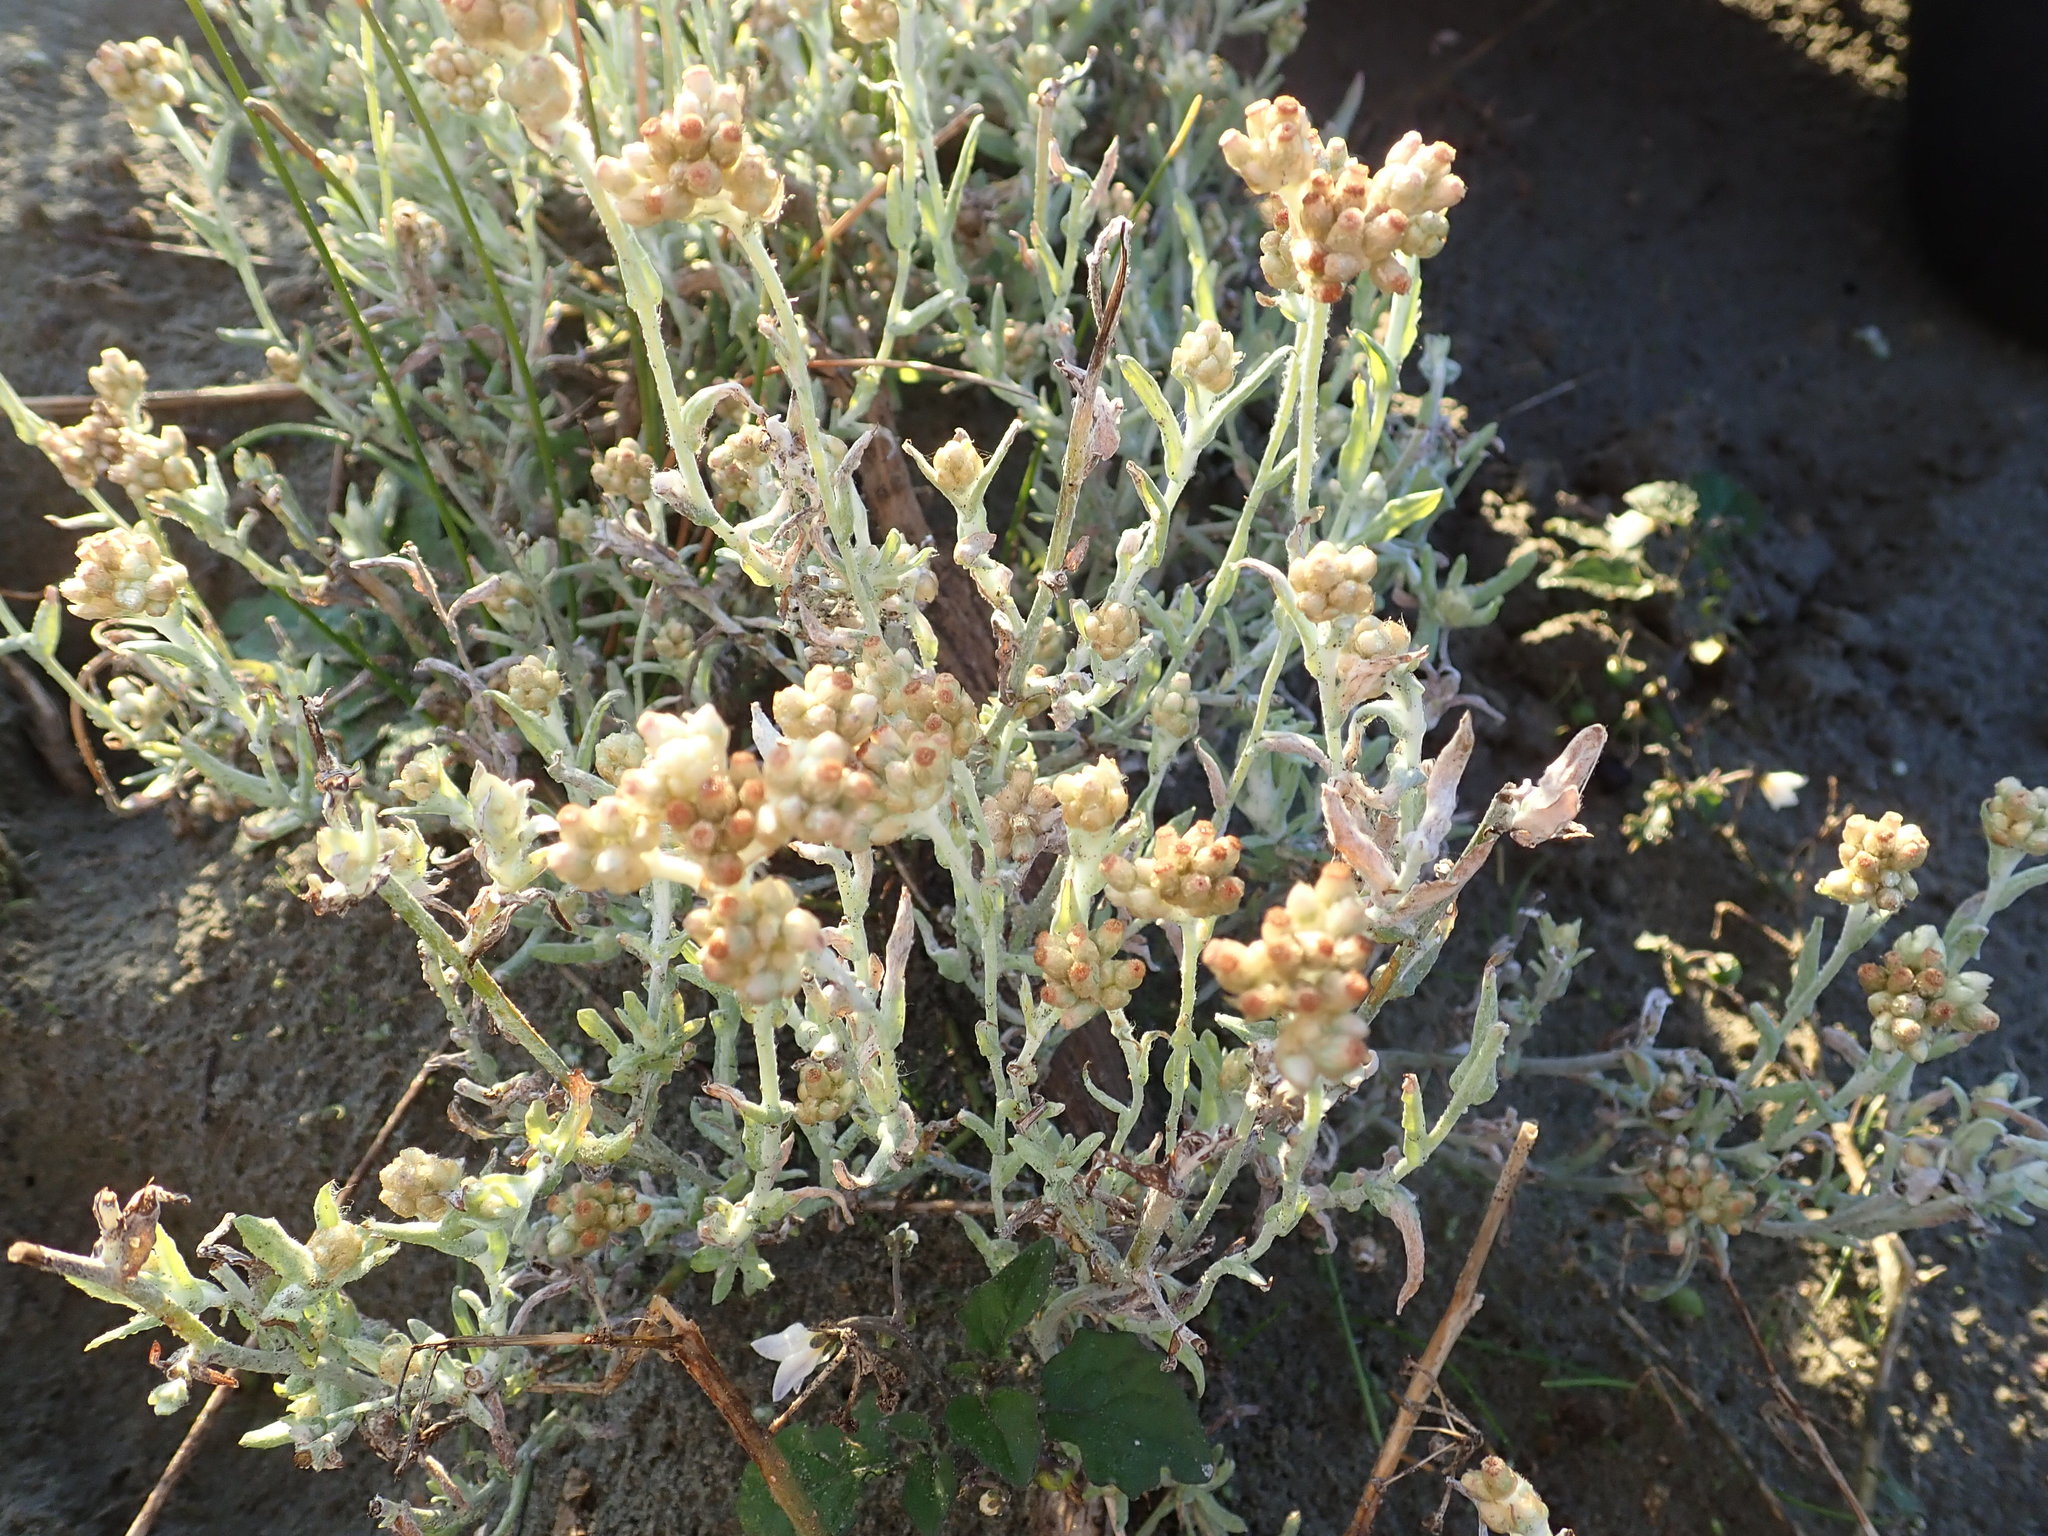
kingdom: Plantae
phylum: Tracheophyta
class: Magnoliopsida
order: Asterales
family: Asteraceae
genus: Helichrysum
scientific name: Helichrysum luteoalbum
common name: Daisy
